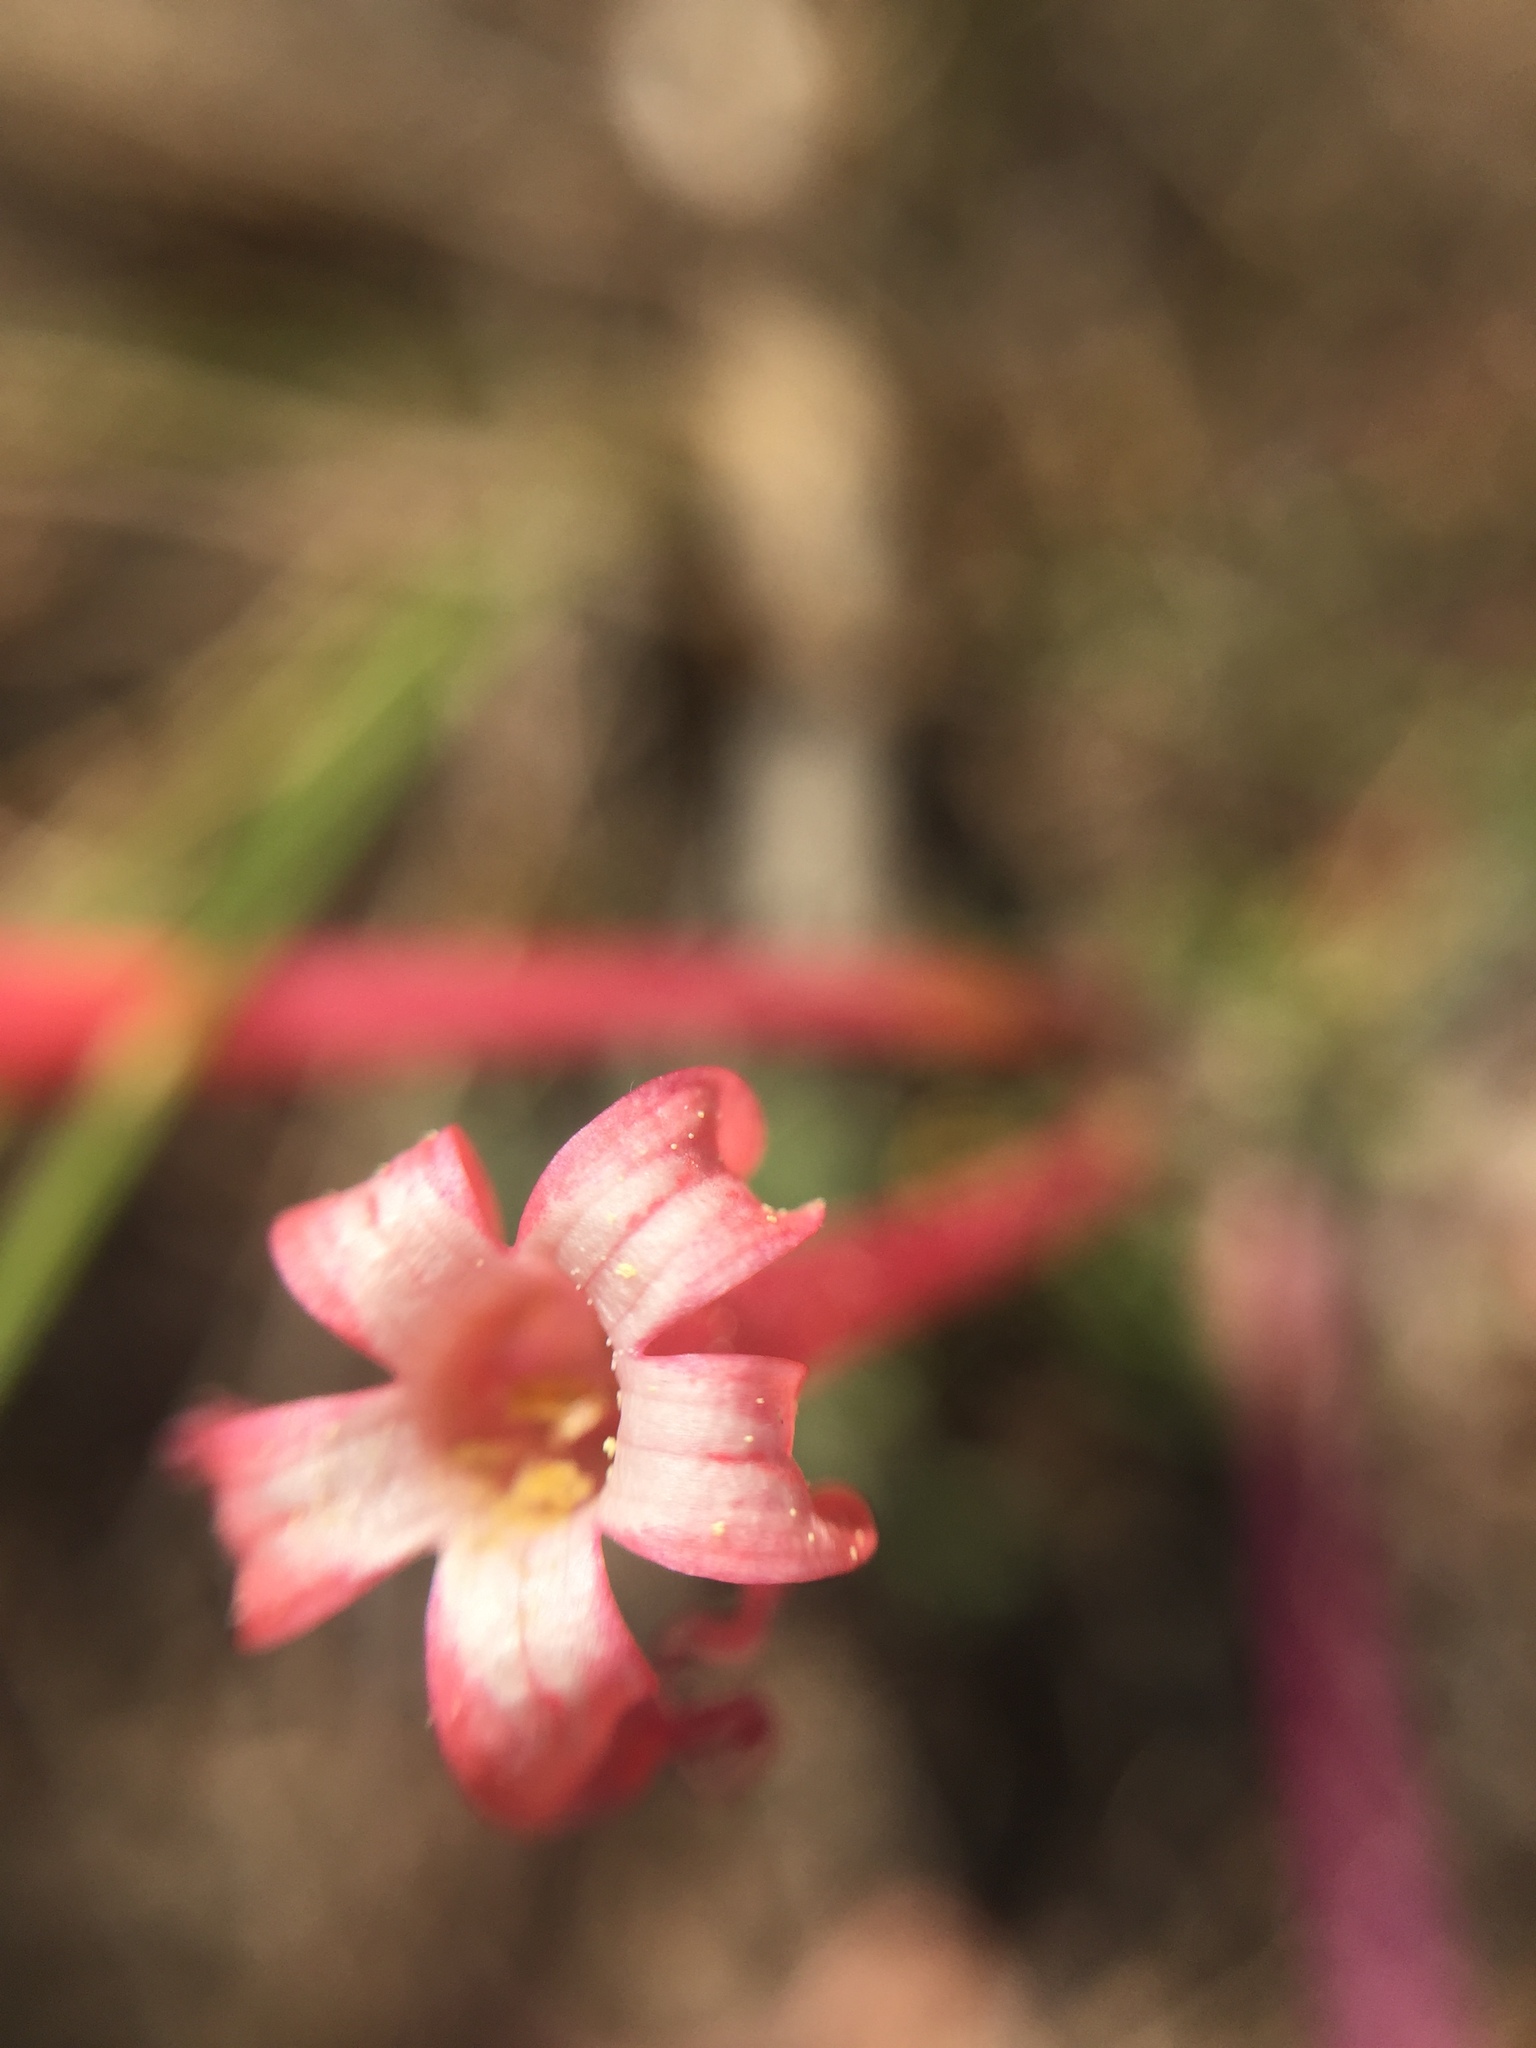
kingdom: Plantae
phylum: Tracheophyta
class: Magnoliopsida
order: Ericales
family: Polemoniaceae
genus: Ipomopsis
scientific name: Ipomopsis aggregata
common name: Scarlet gilia
